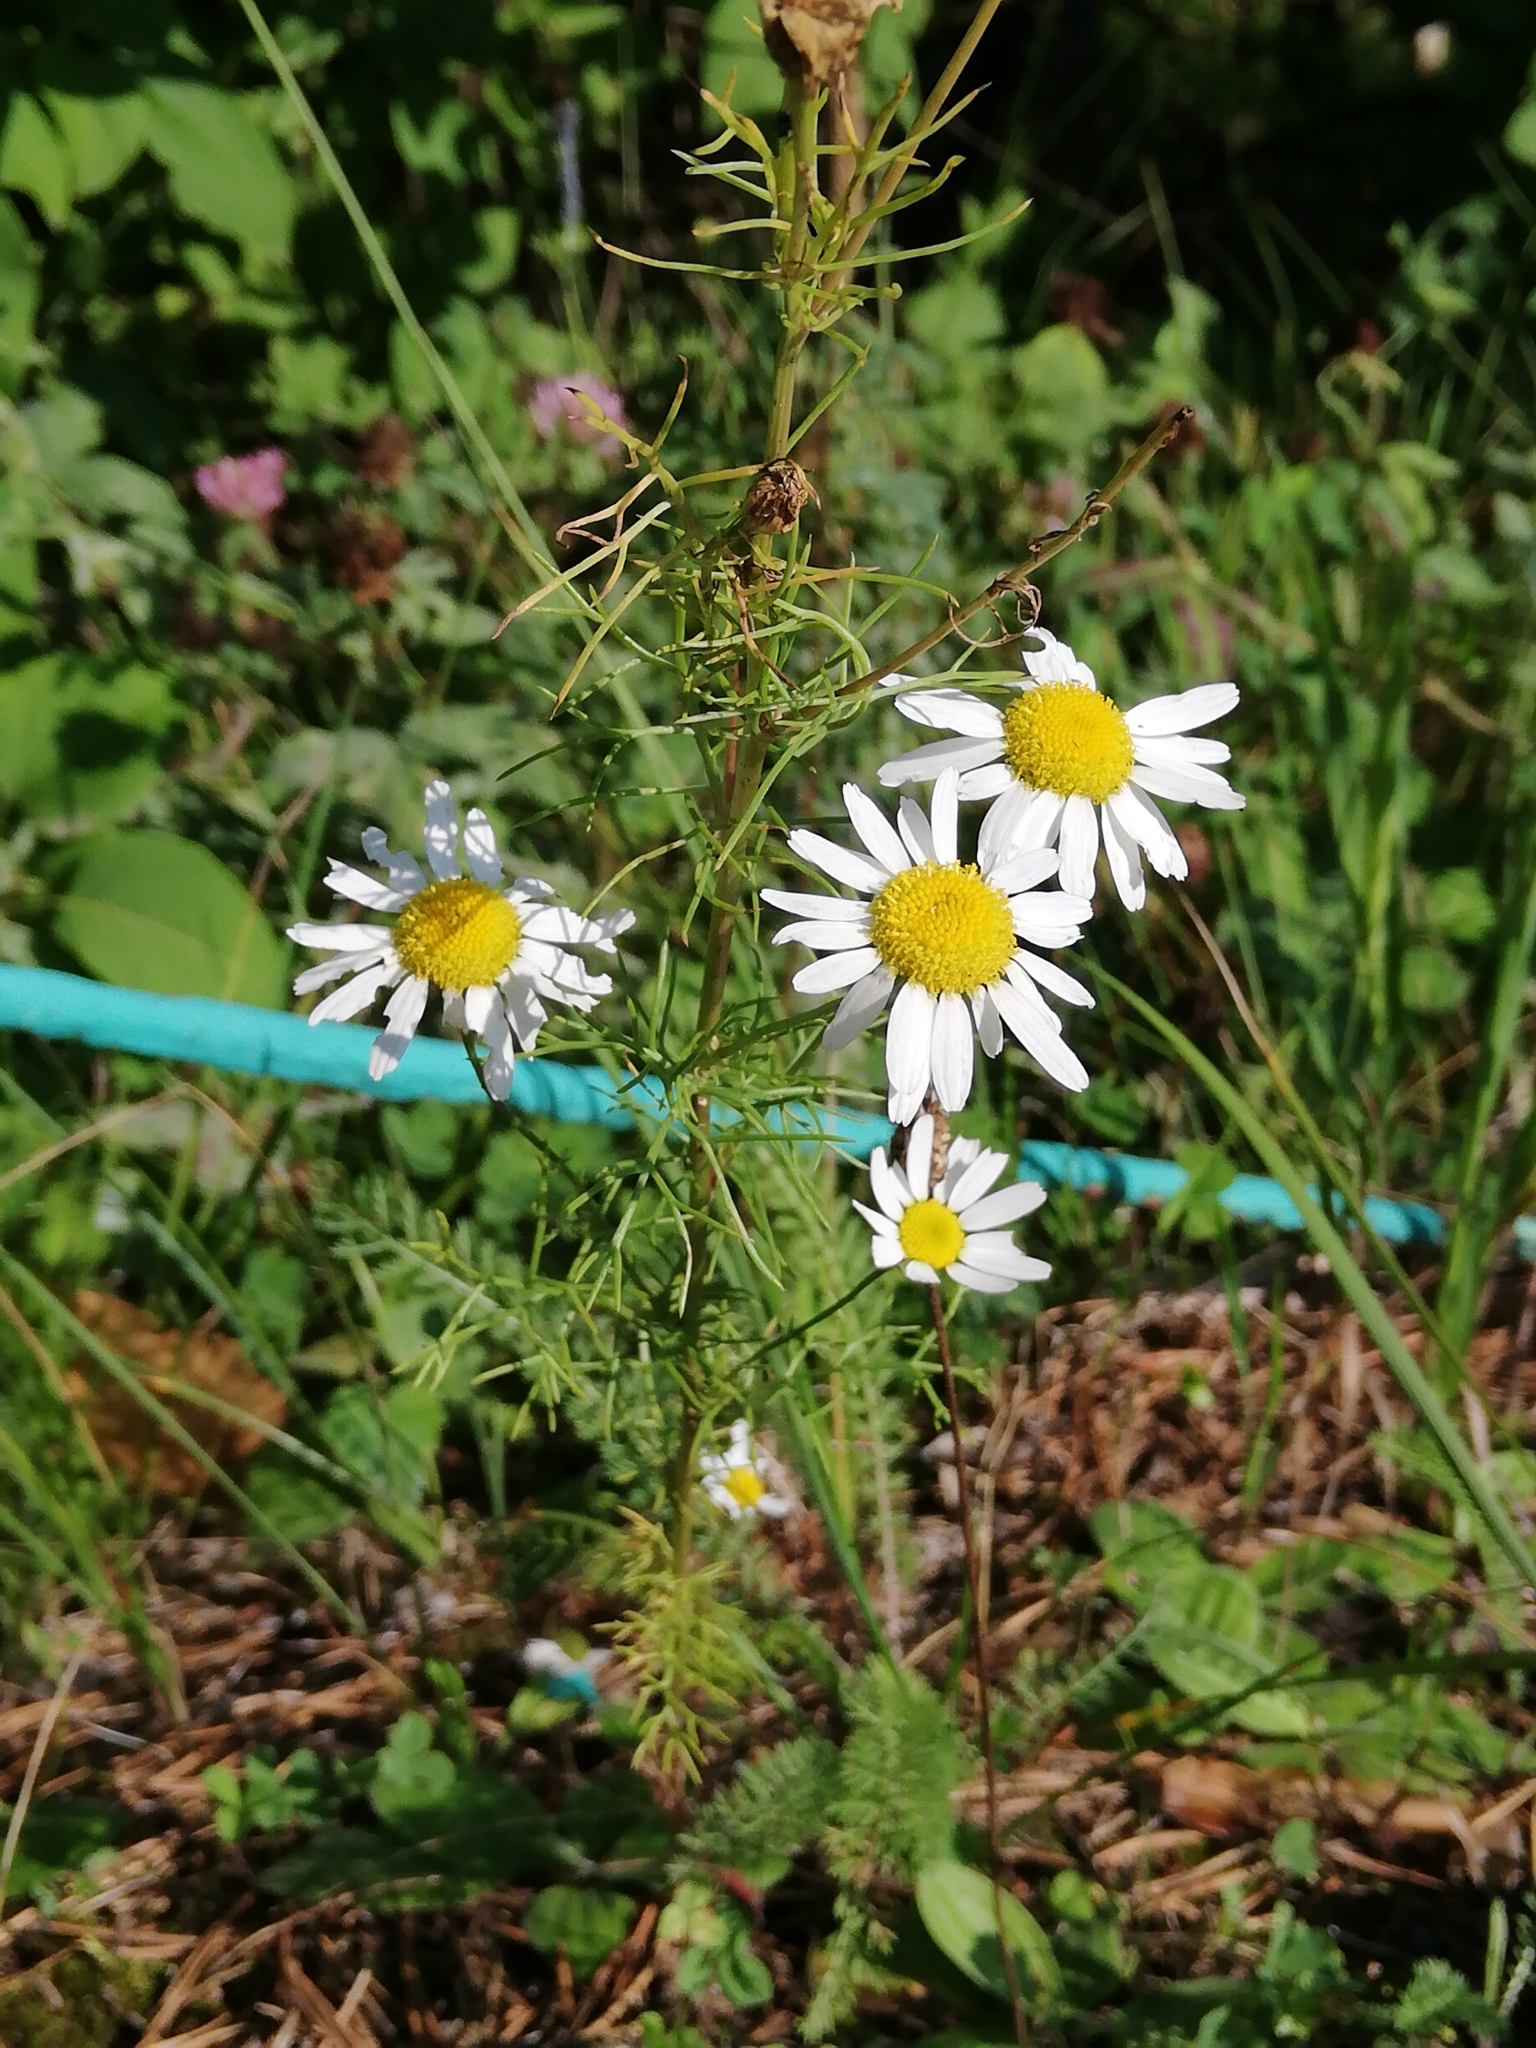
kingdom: Plantae
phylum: Tracheophyta
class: Magnoliopsida
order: Asterales
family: Asteraceae
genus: Tripleurospermum
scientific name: Tripleurospermum inodorum
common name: Scentless mayweed
